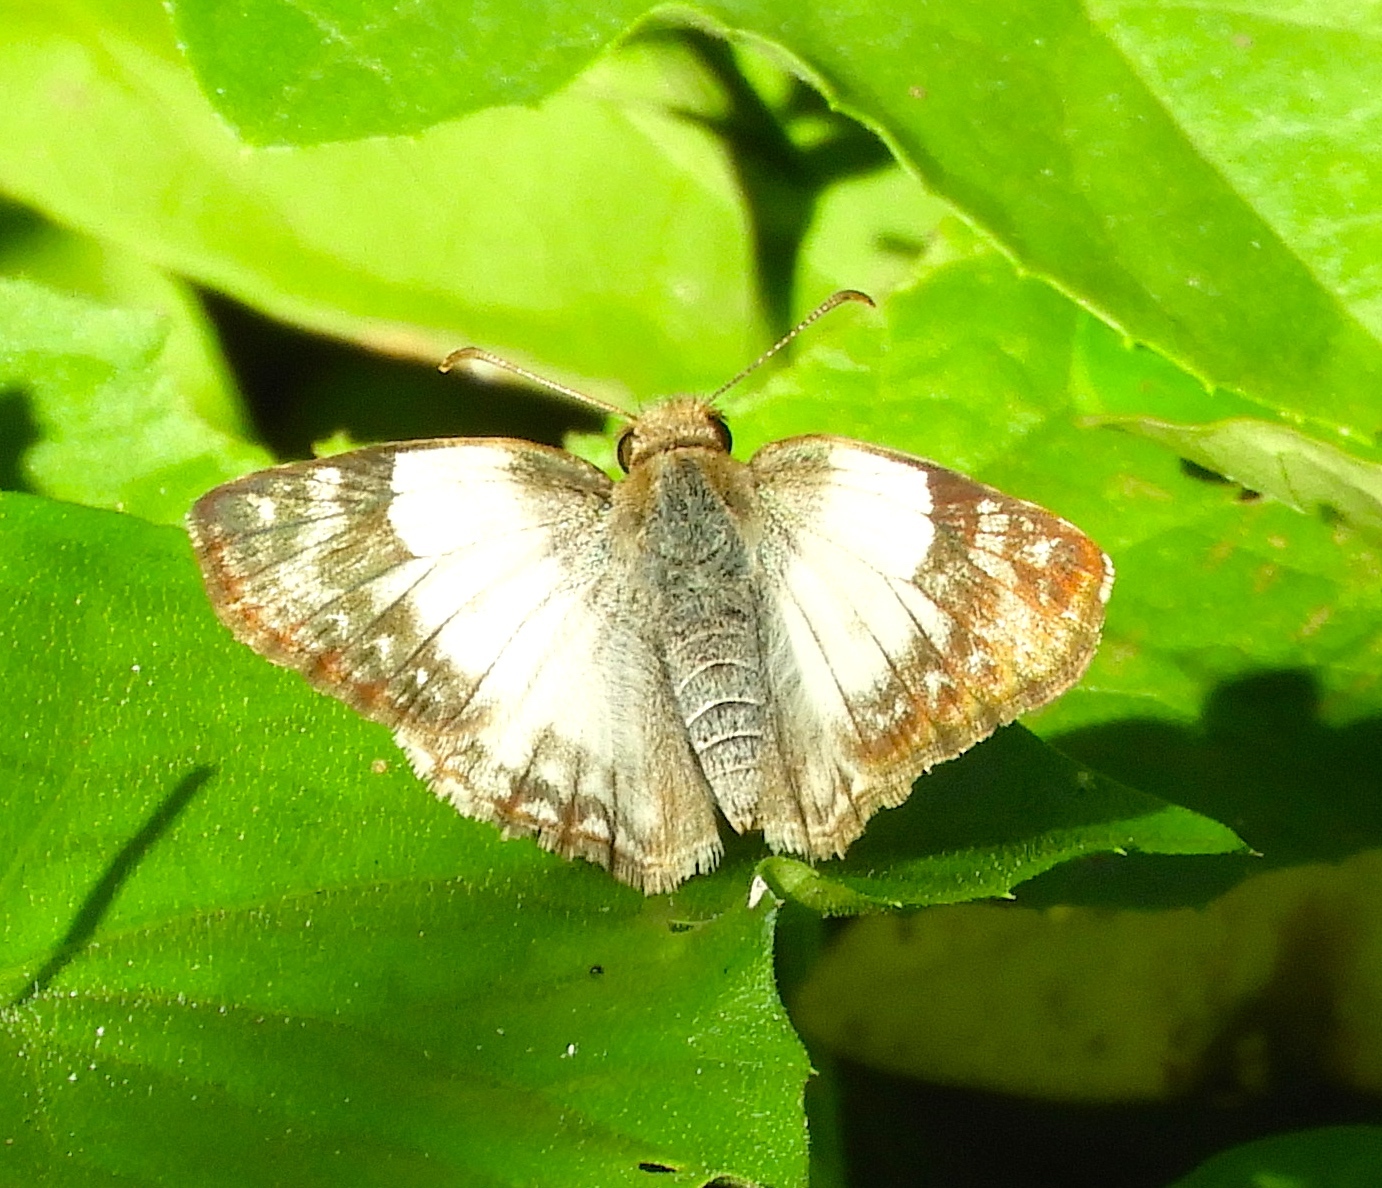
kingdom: Animalia
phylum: Arthropoda
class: Insecta
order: Lepidoptera
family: Hesperiidae
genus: Heliopetes
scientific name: Heliopetes laviana
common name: Laviana white-skipper
